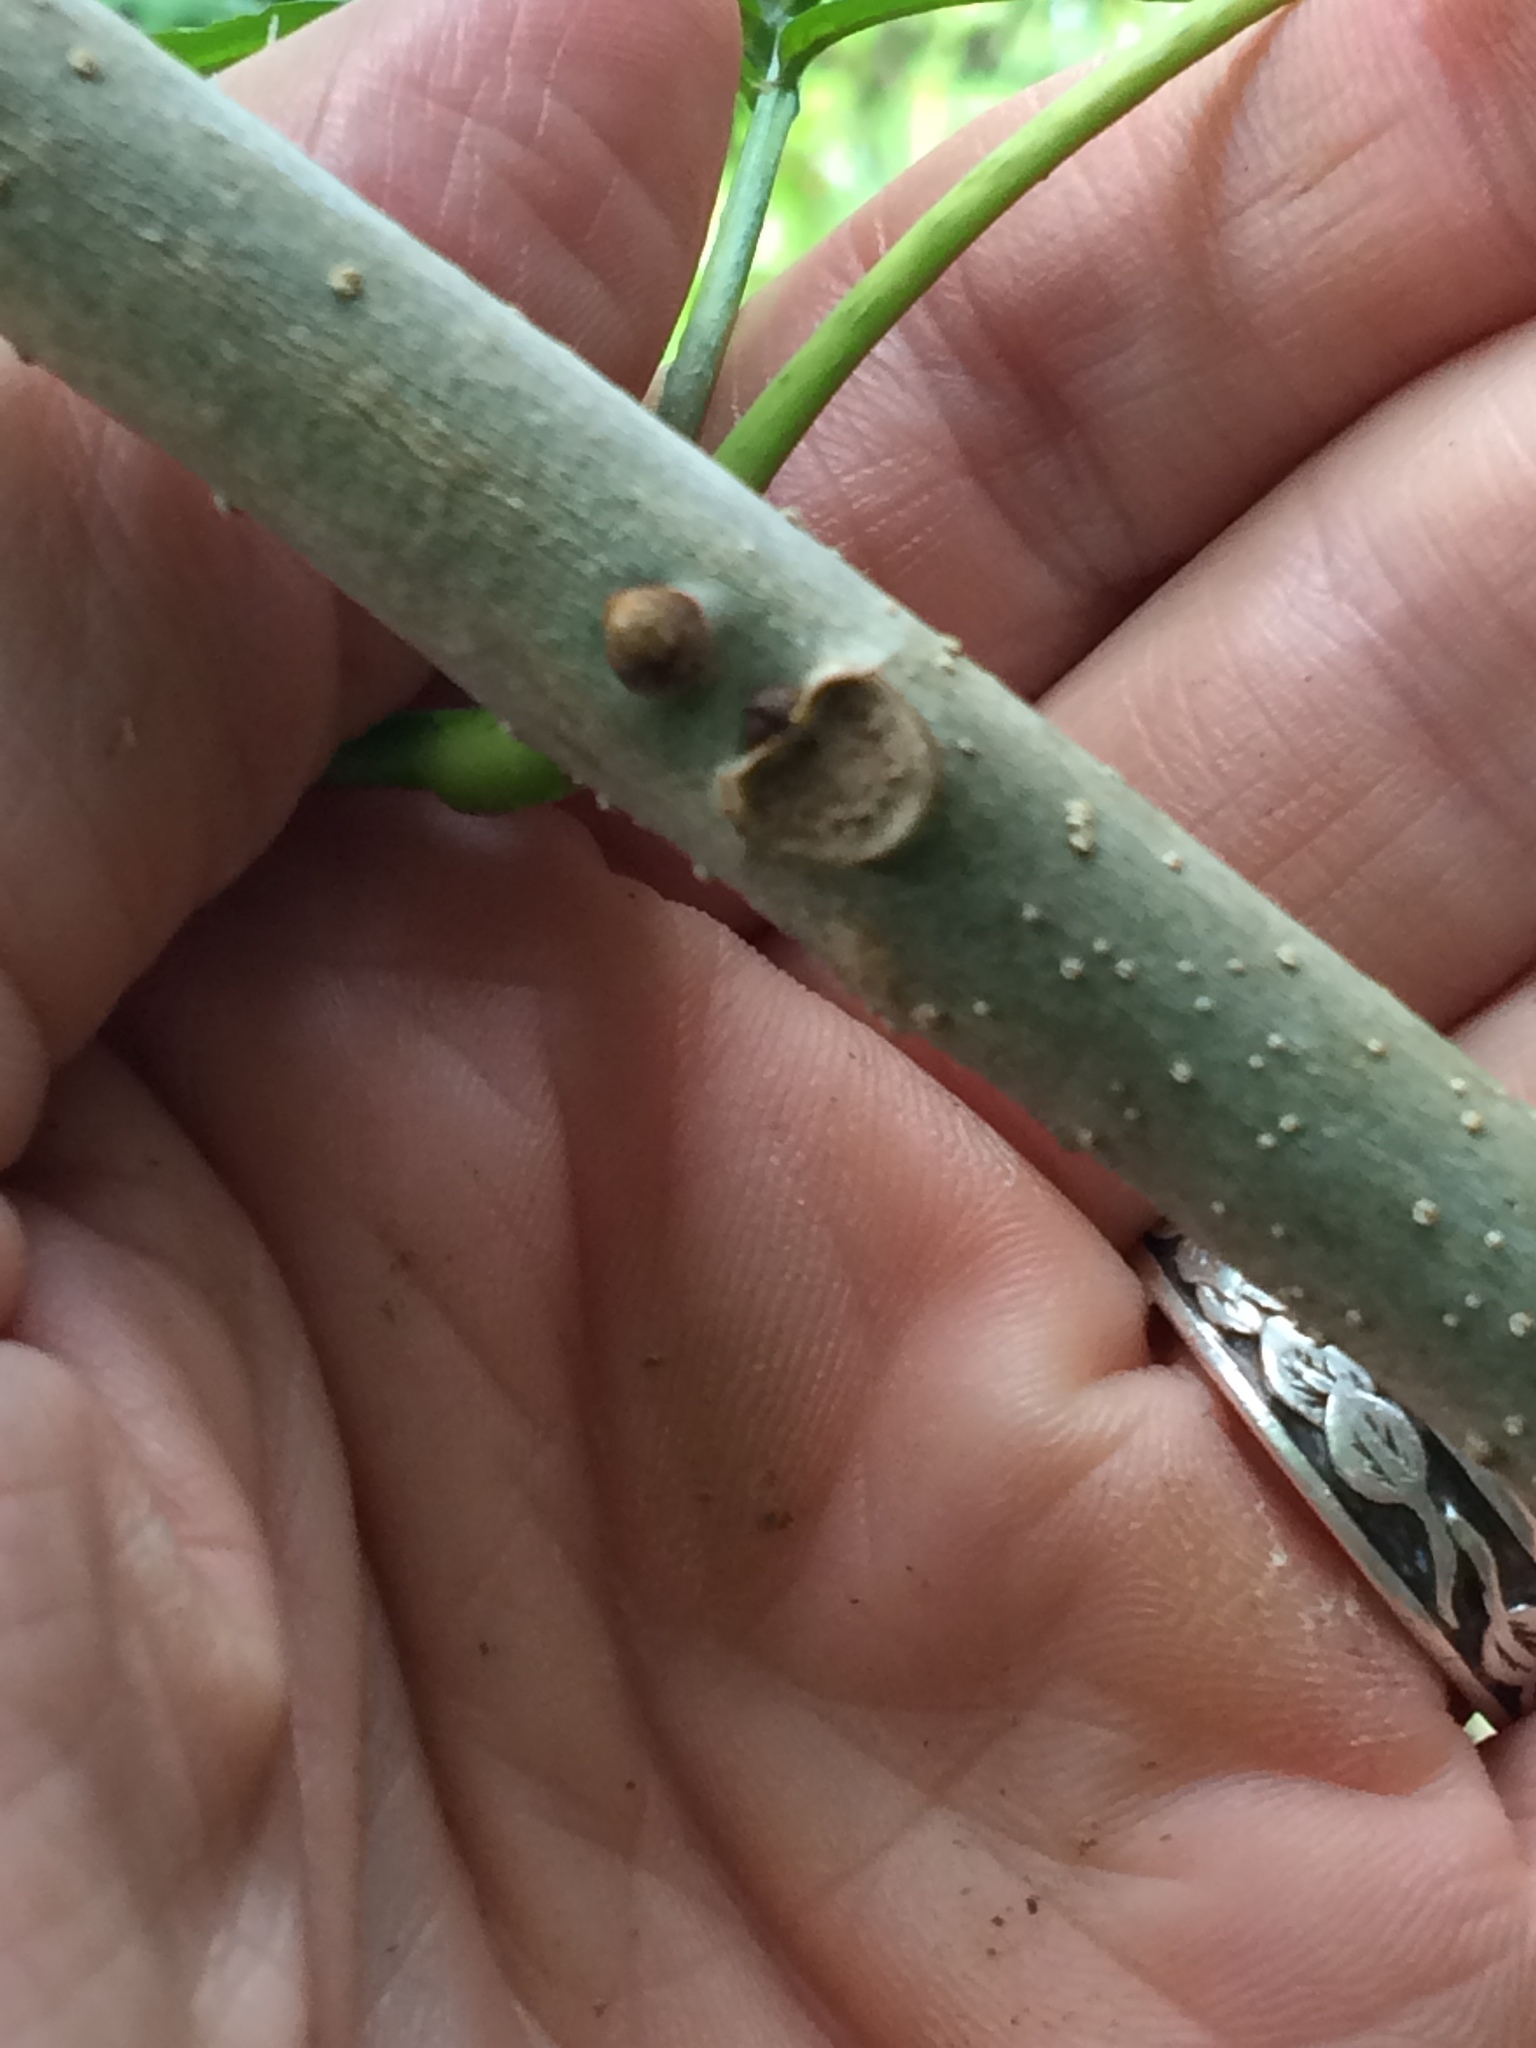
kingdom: Plantae
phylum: Tracheophyta
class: Magnoliopsida
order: Lamiales
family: Oleaceae
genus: Fraxinus
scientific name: Fraxinus nigra
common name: Black ash
